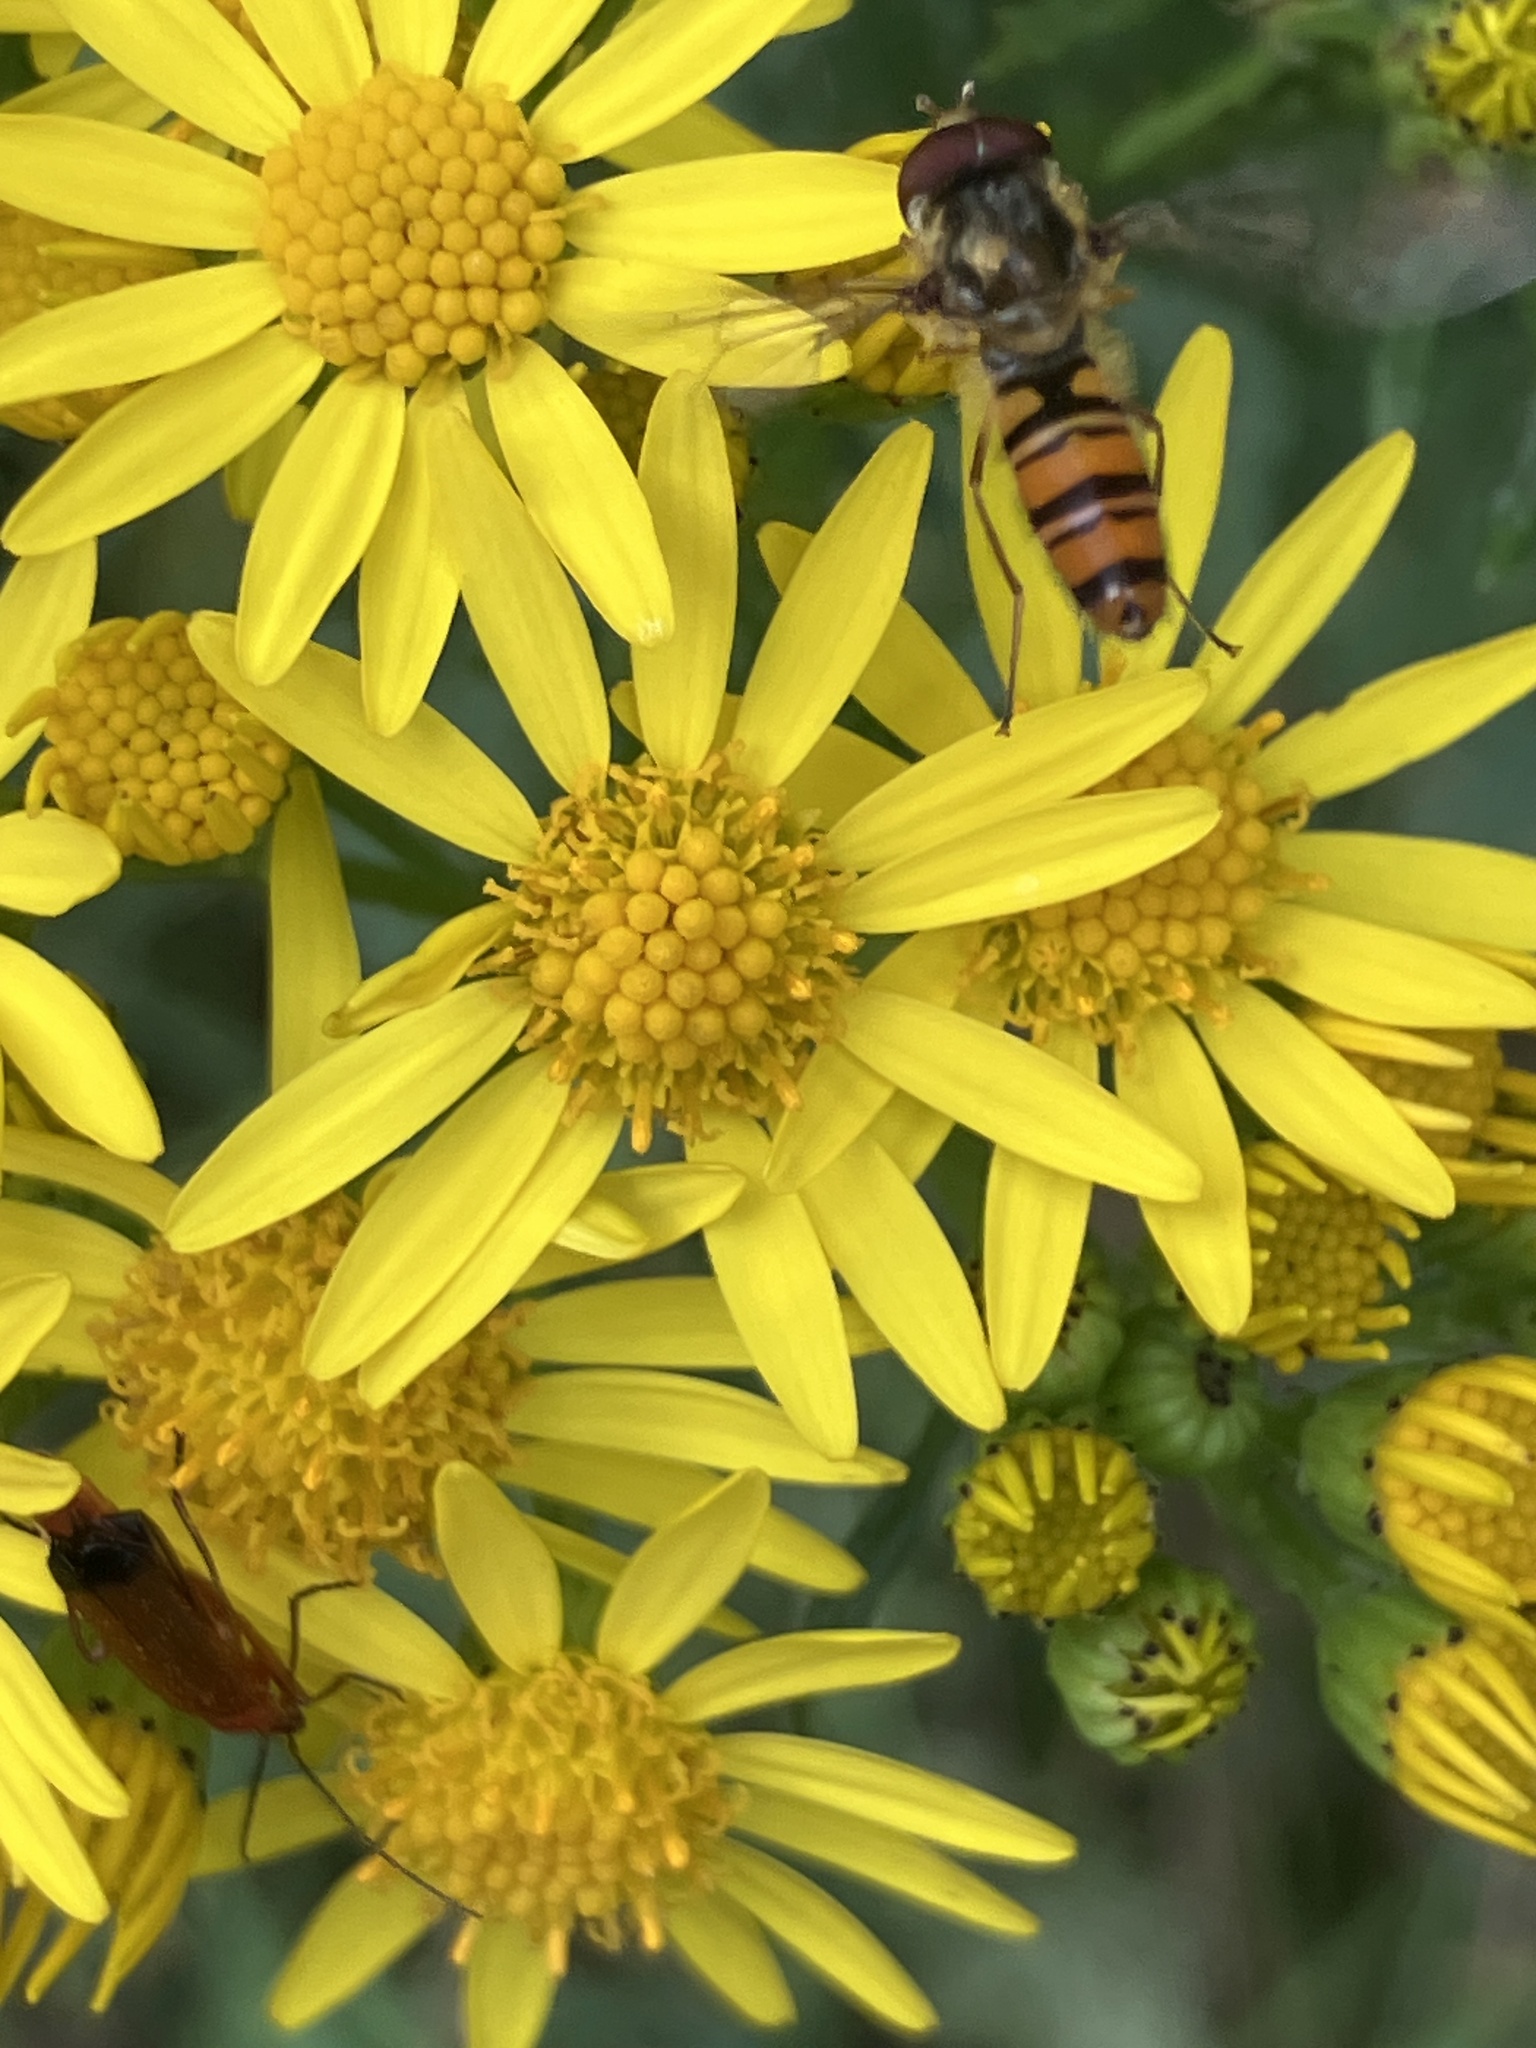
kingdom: Animalia
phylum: Arthropoda
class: Insecta
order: Diptera
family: Syrphidae
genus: Episyrphus
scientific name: Episyrphus balteatus
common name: Marmalade hoverfly
